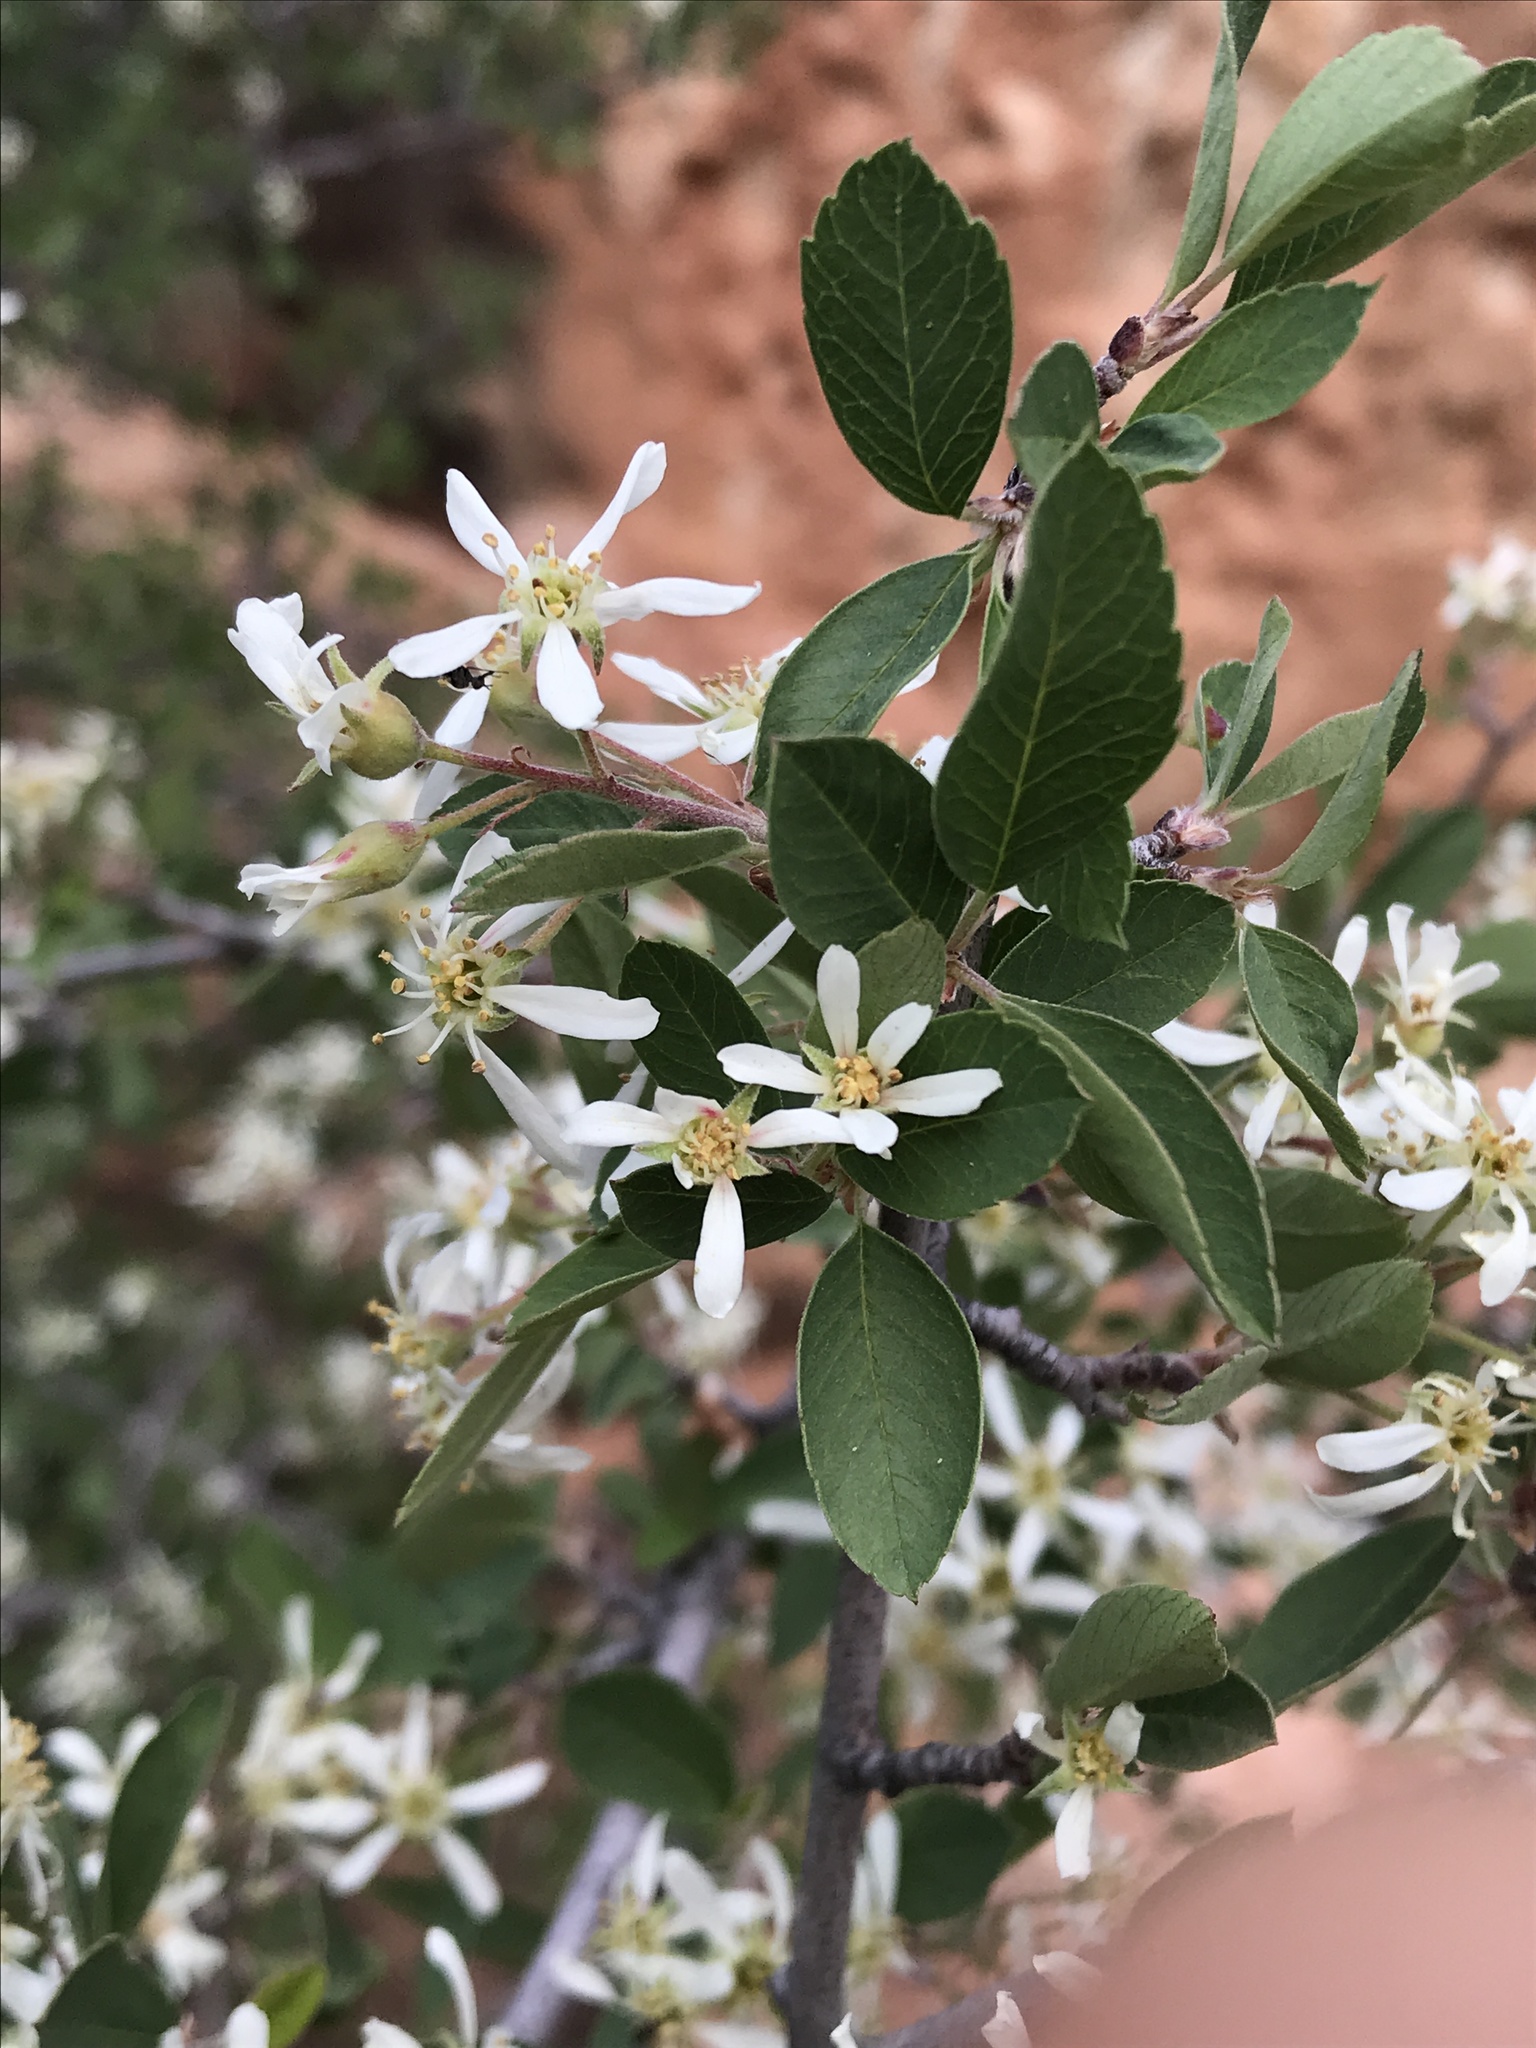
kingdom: Plantae
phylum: Tracheophyta
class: Magnoliopsida
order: Rosales
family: Rosaceae
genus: Amelanchier
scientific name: Amelanchier utahensis
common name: Utah serviceberry
